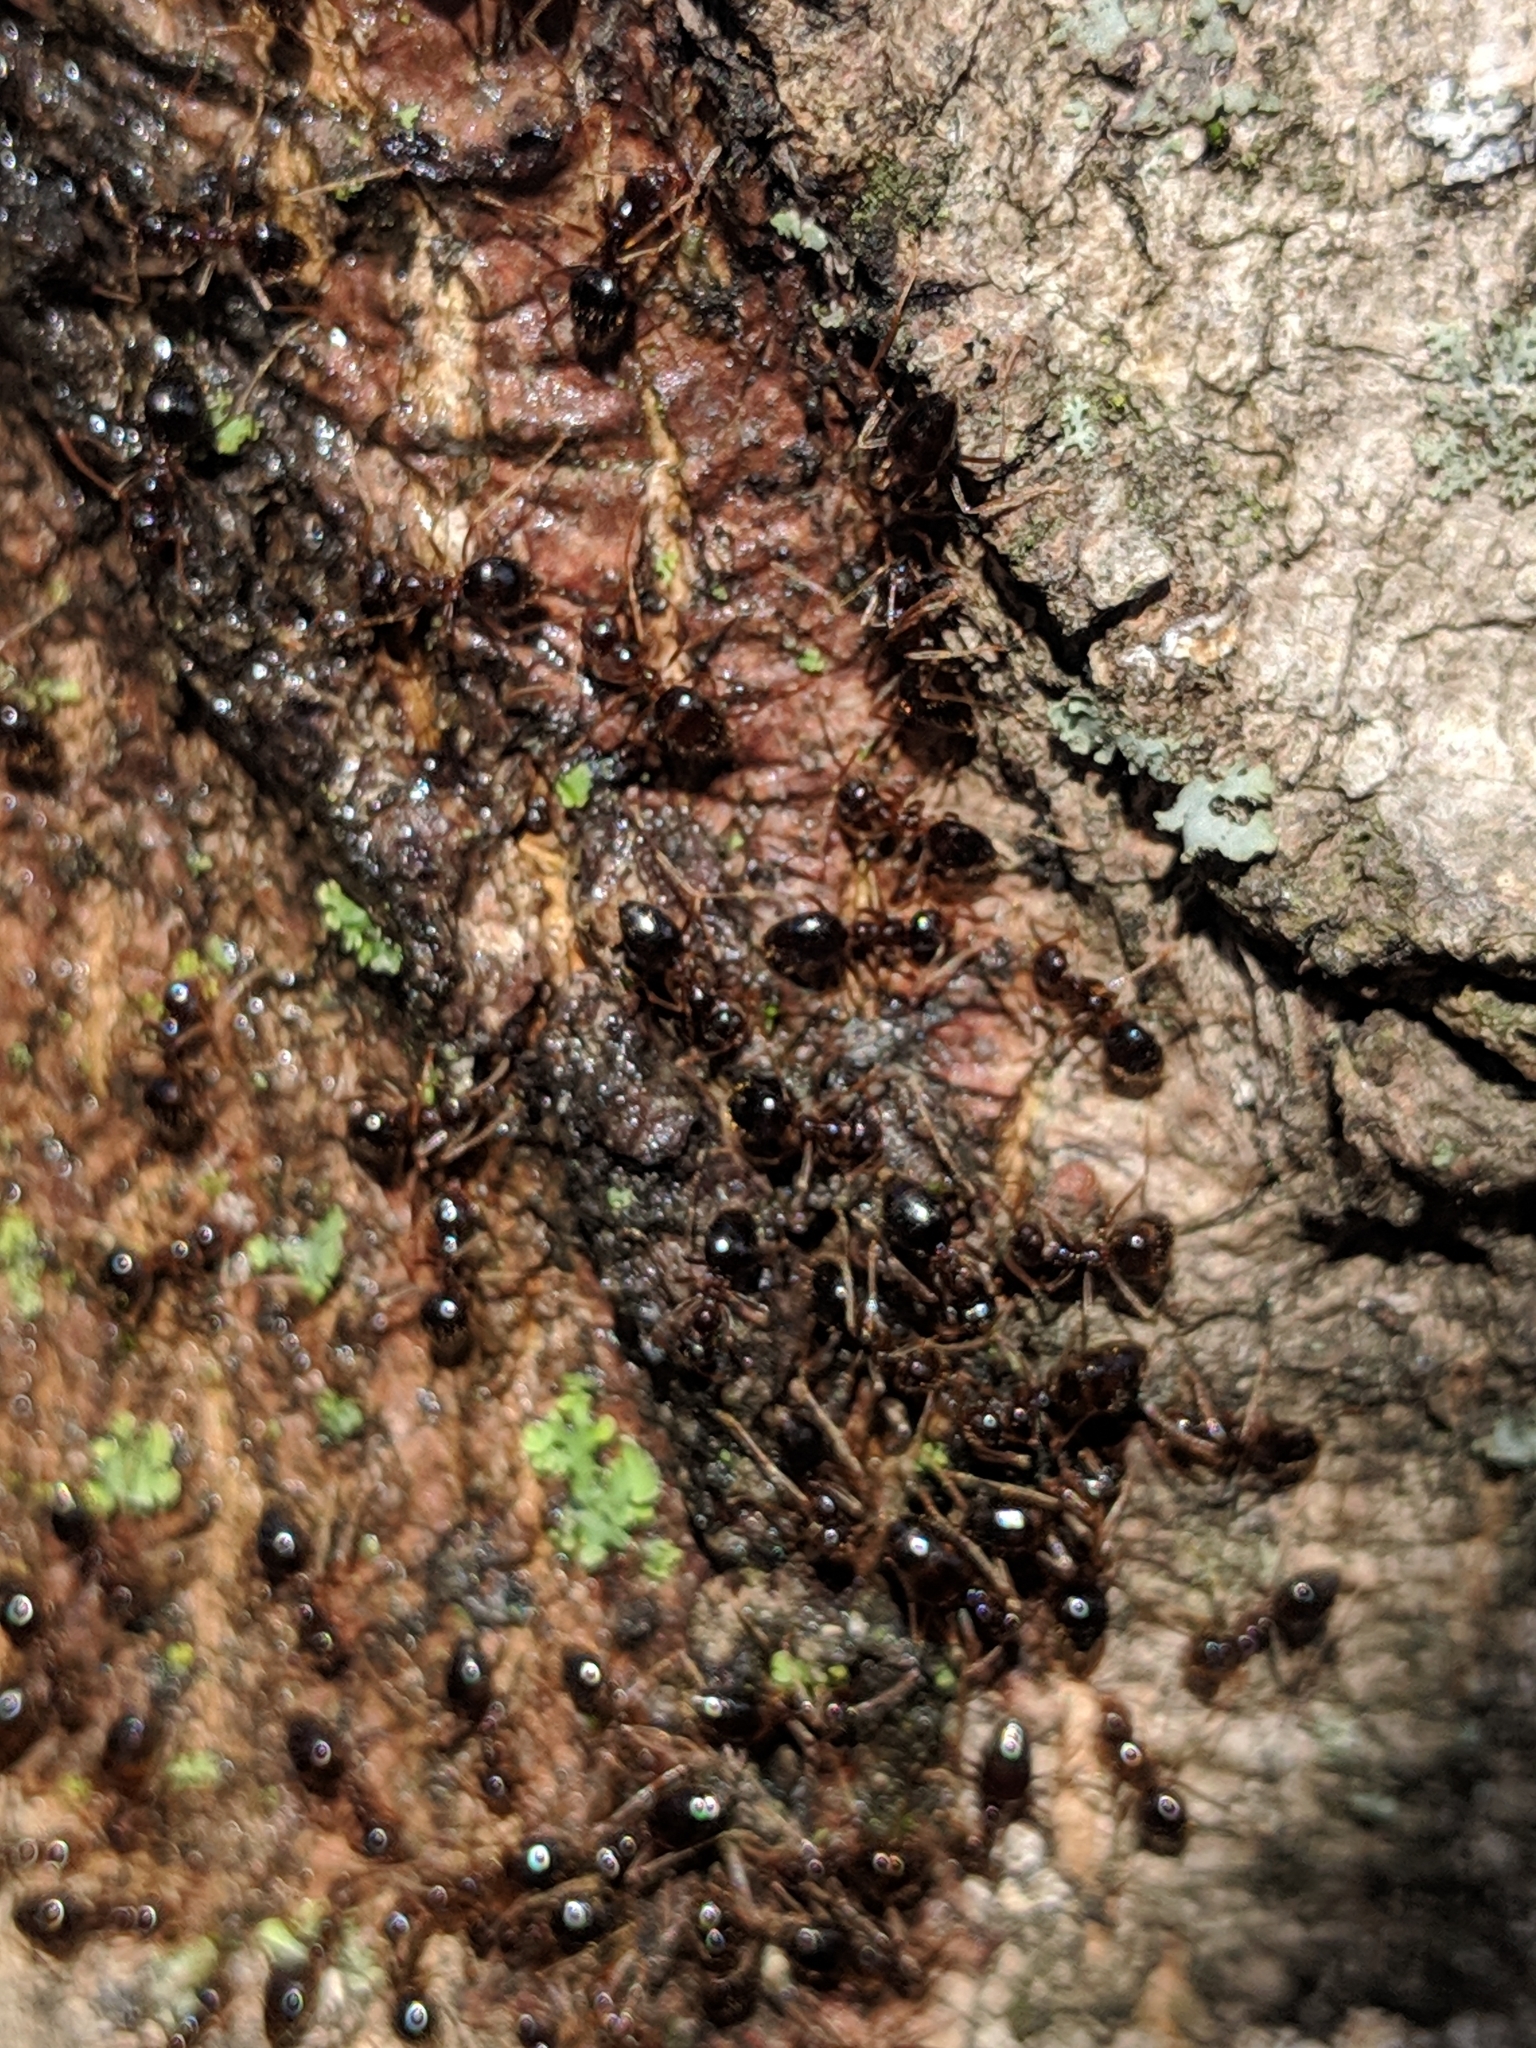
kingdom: Animalia
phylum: Arthropoda
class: Insecta
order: Hymenoptera
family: Formicidae
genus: Prenolepis
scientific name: Prenolepis imparis
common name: Small honey ant
